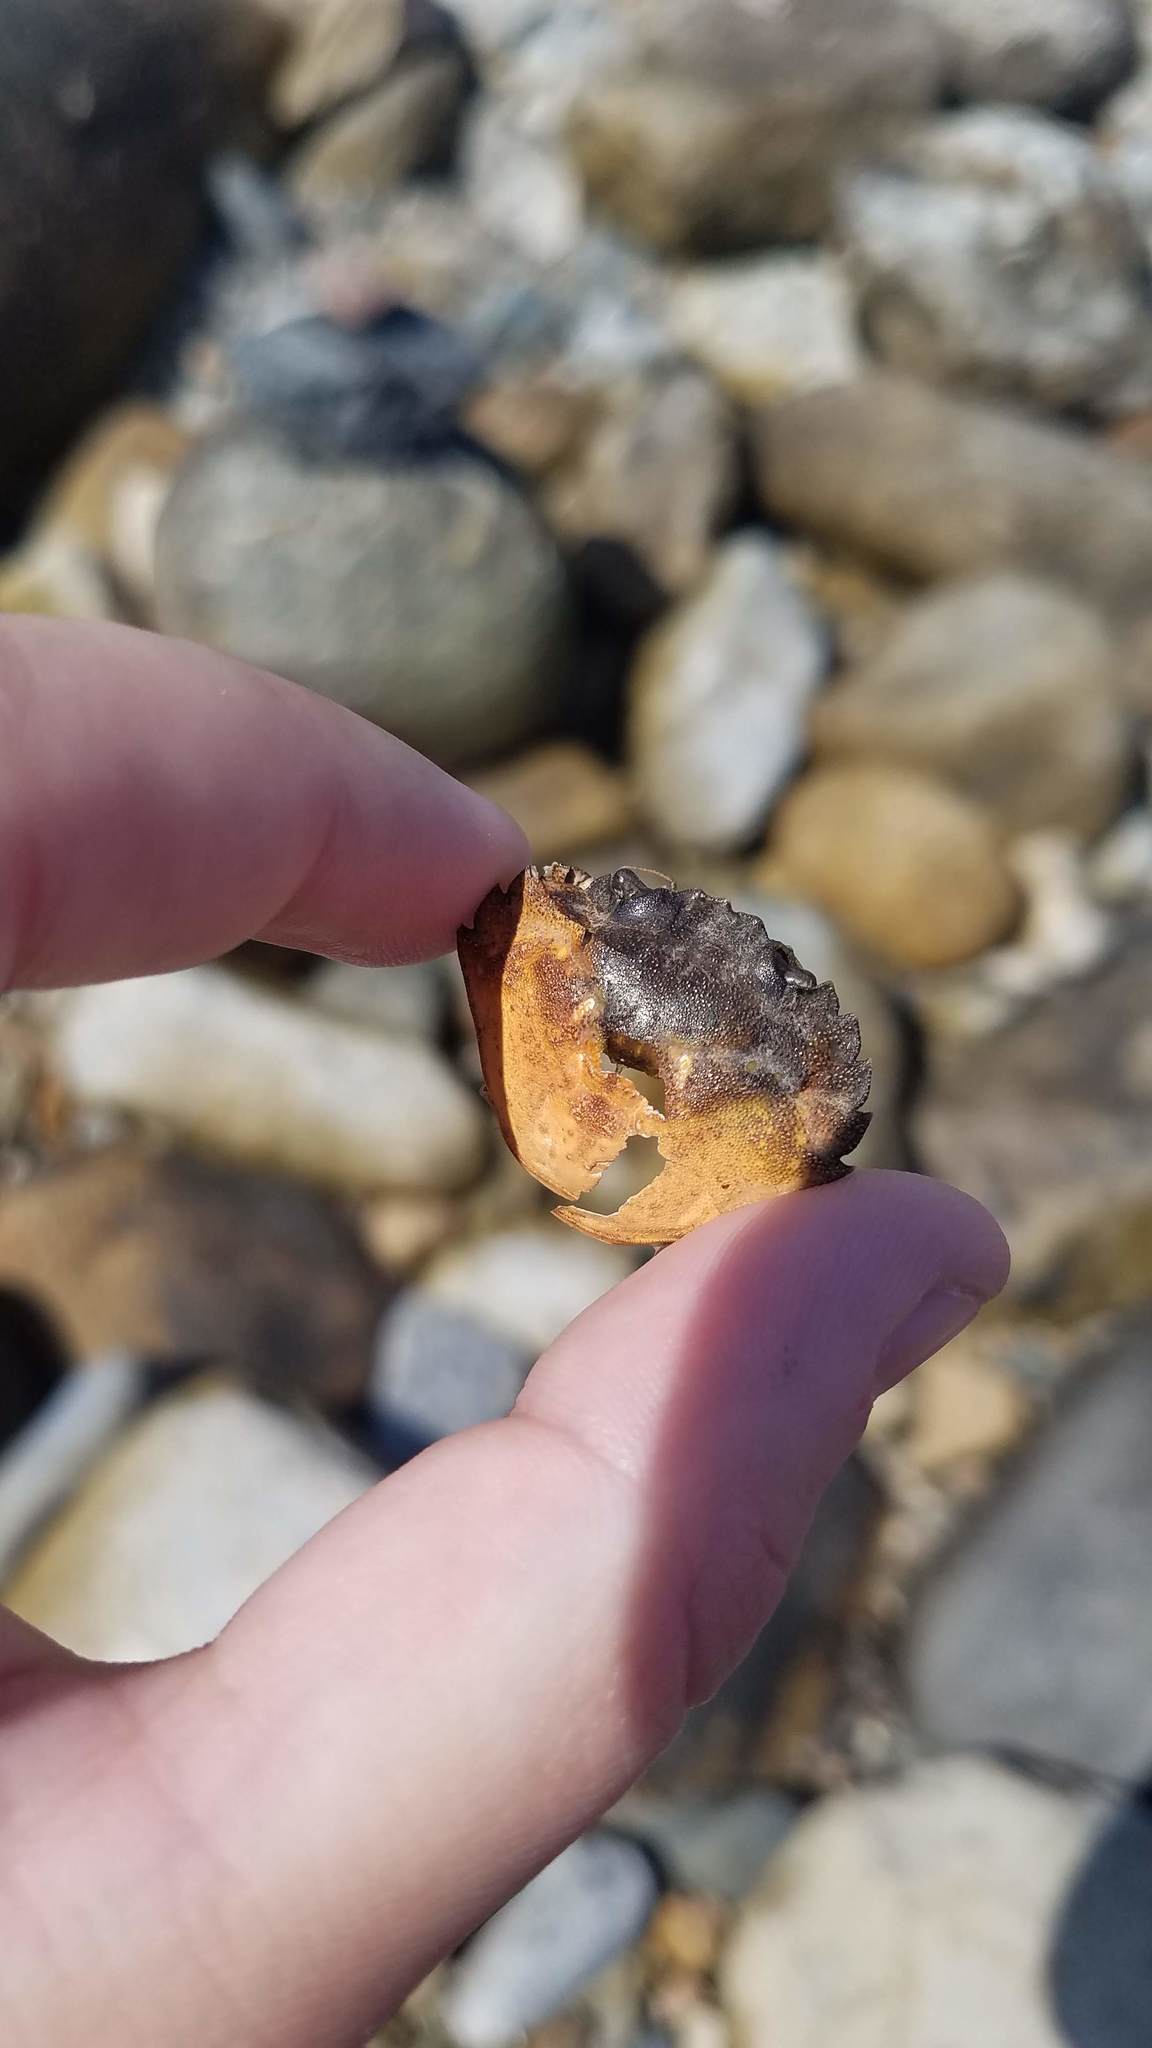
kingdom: Animalia
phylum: Arthropoda
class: Malacostraca
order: Decapoda
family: Carcinidae
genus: Carcinus
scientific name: Carcinus maenas
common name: European green crab
